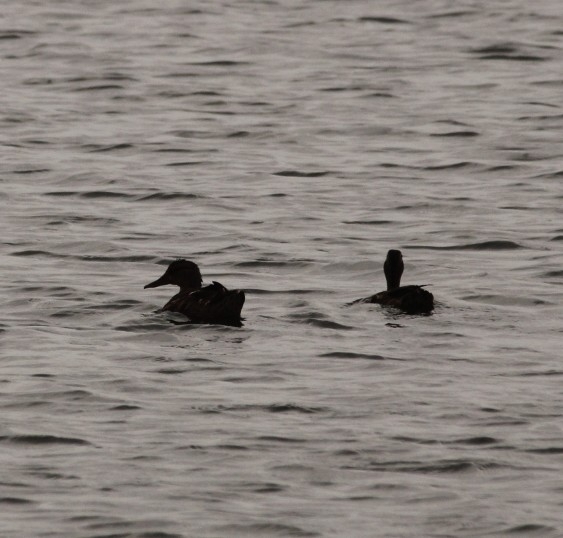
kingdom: Animalia
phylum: Chordata
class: Aves
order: Anseriformes
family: Anatidae
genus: Anas
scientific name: Anas platyrhynchos
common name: Mallard
